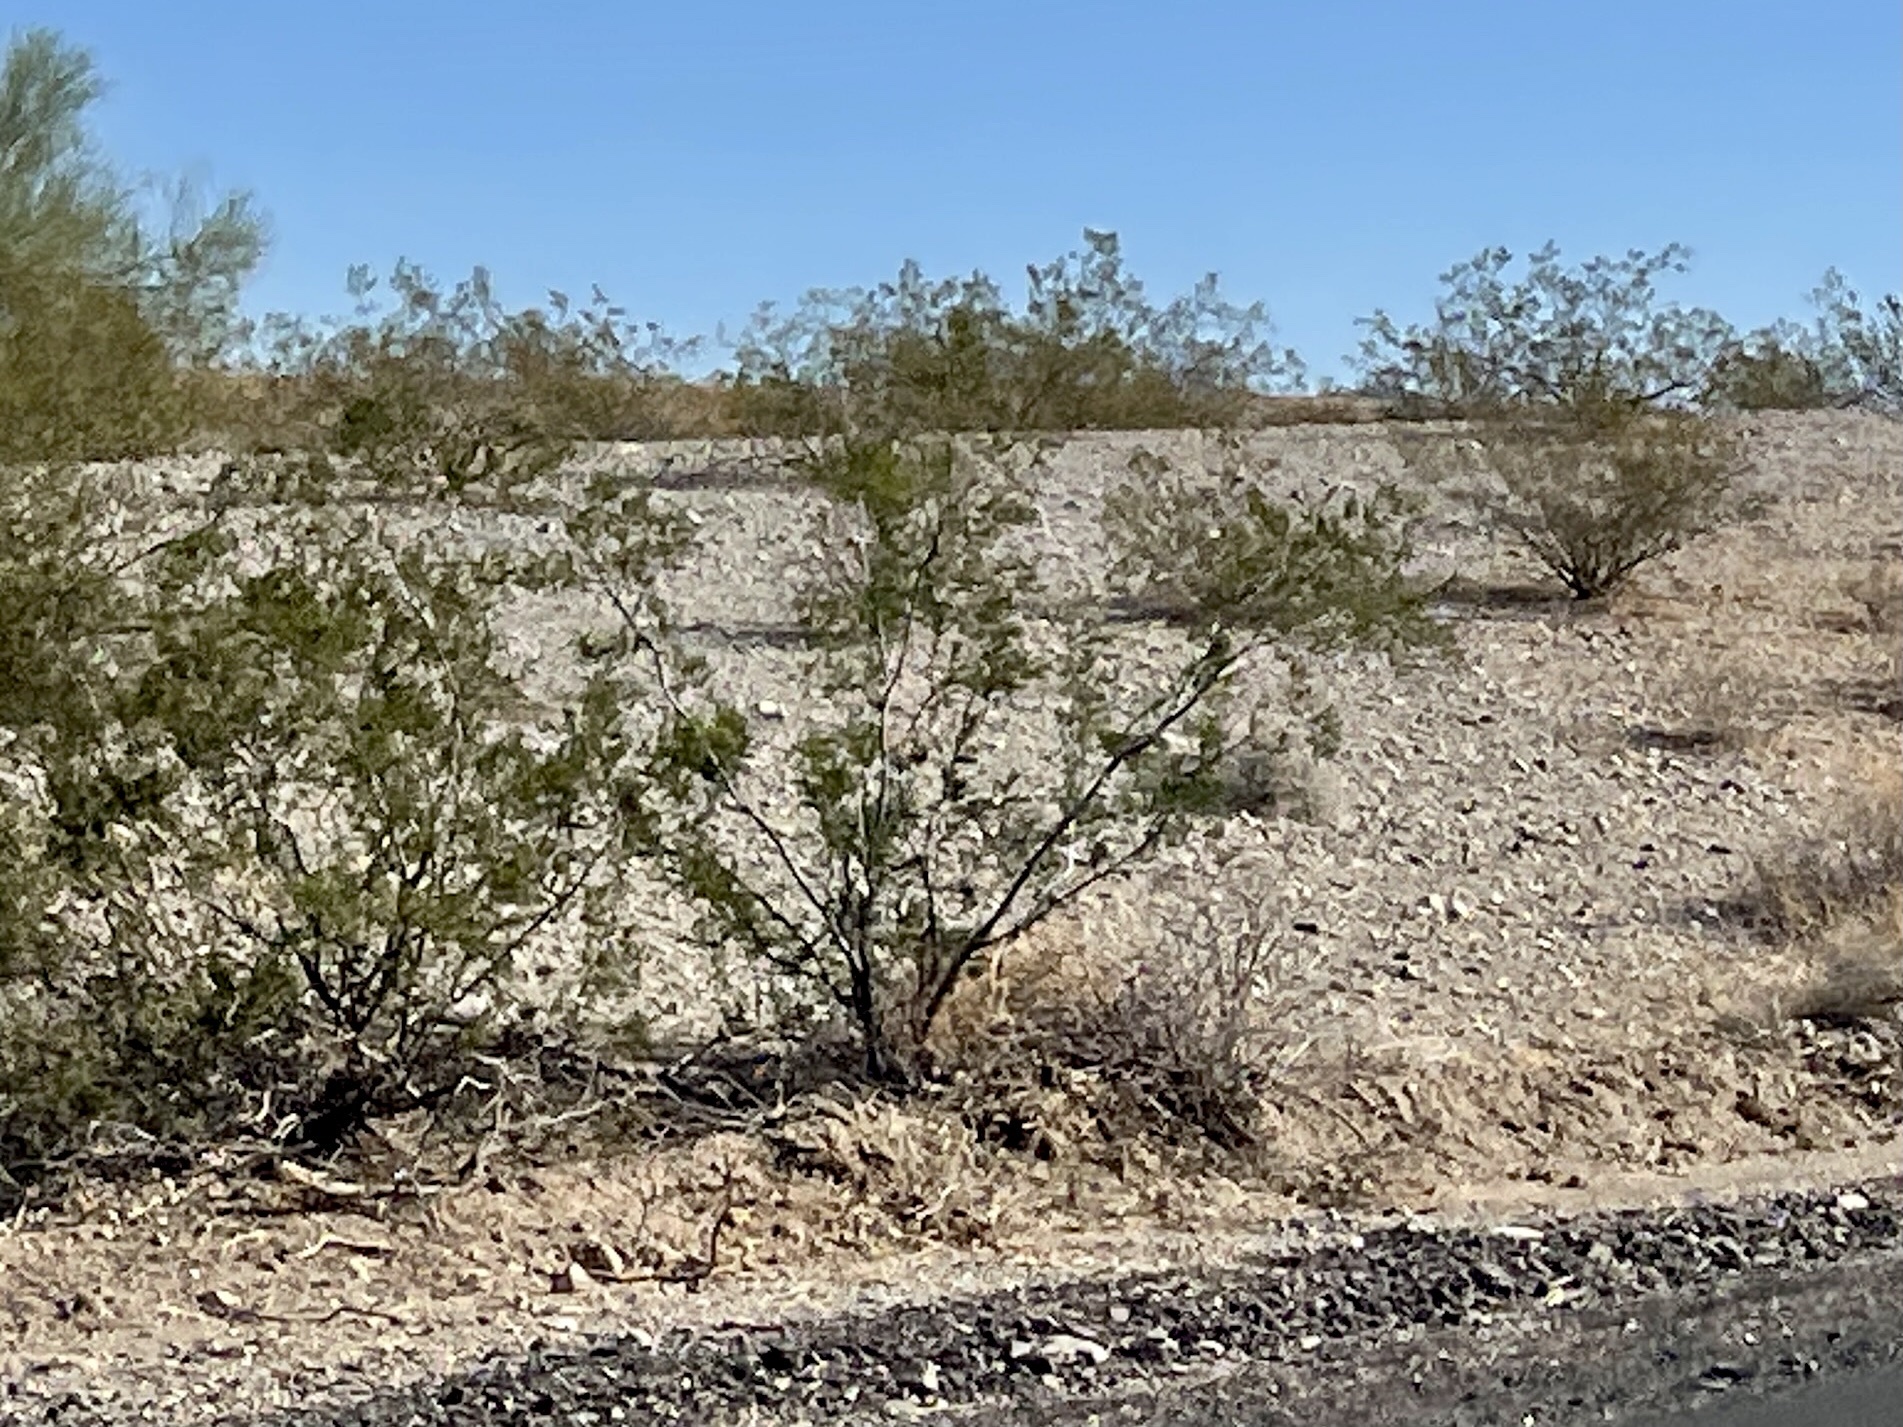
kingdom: Plantae
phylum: Tracheophyta
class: Magnoliopsida
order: Zygophyllales
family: Zygophyllaceae
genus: Larrea
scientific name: Larrea tridentata
